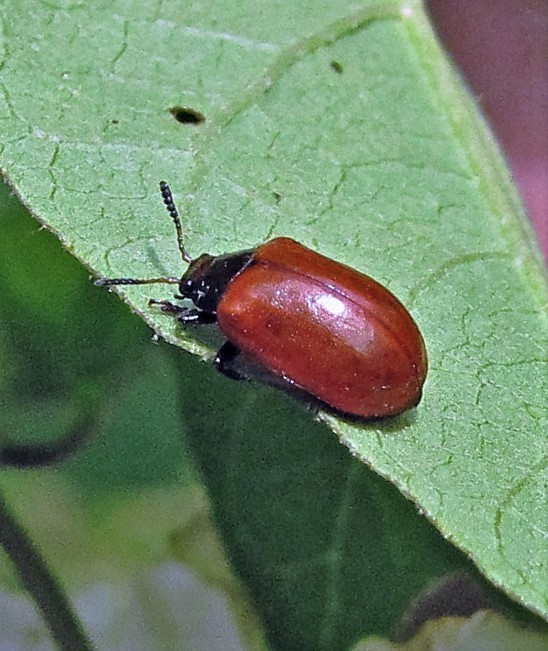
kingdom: Animalia
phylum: Arthropoda
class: Insecta
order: Coleoptera
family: Chrysomelidae
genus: Plagiodera
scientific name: Plagiodera
